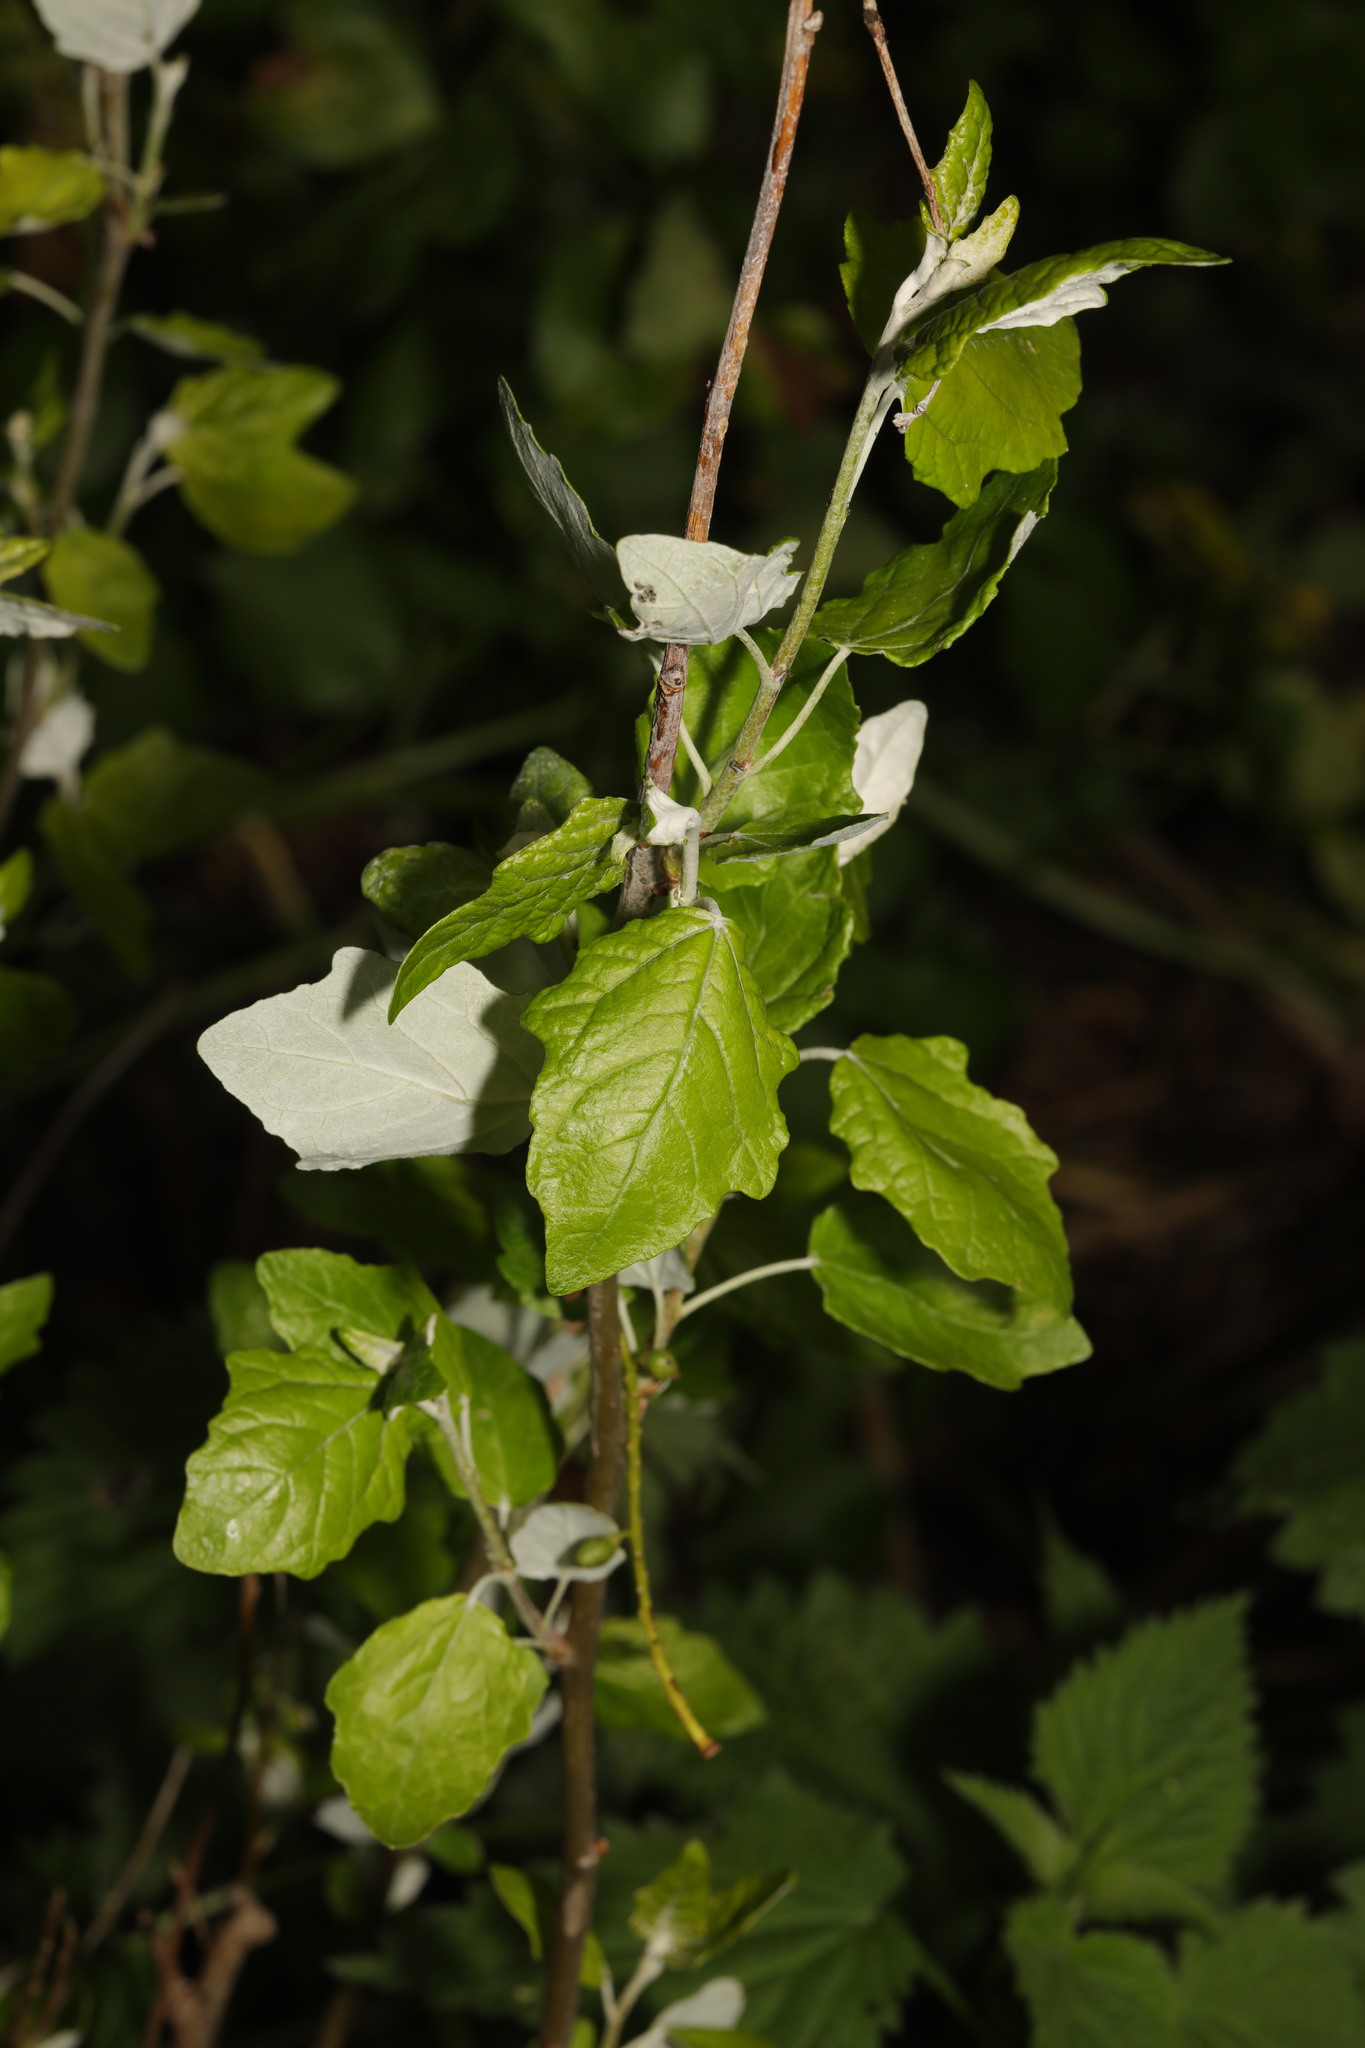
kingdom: Plantae
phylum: Tracheophyta
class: Magnoliopsida
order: Malpighiales
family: Salicaceae
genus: Populus
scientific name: Populus alba
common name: White poplar
